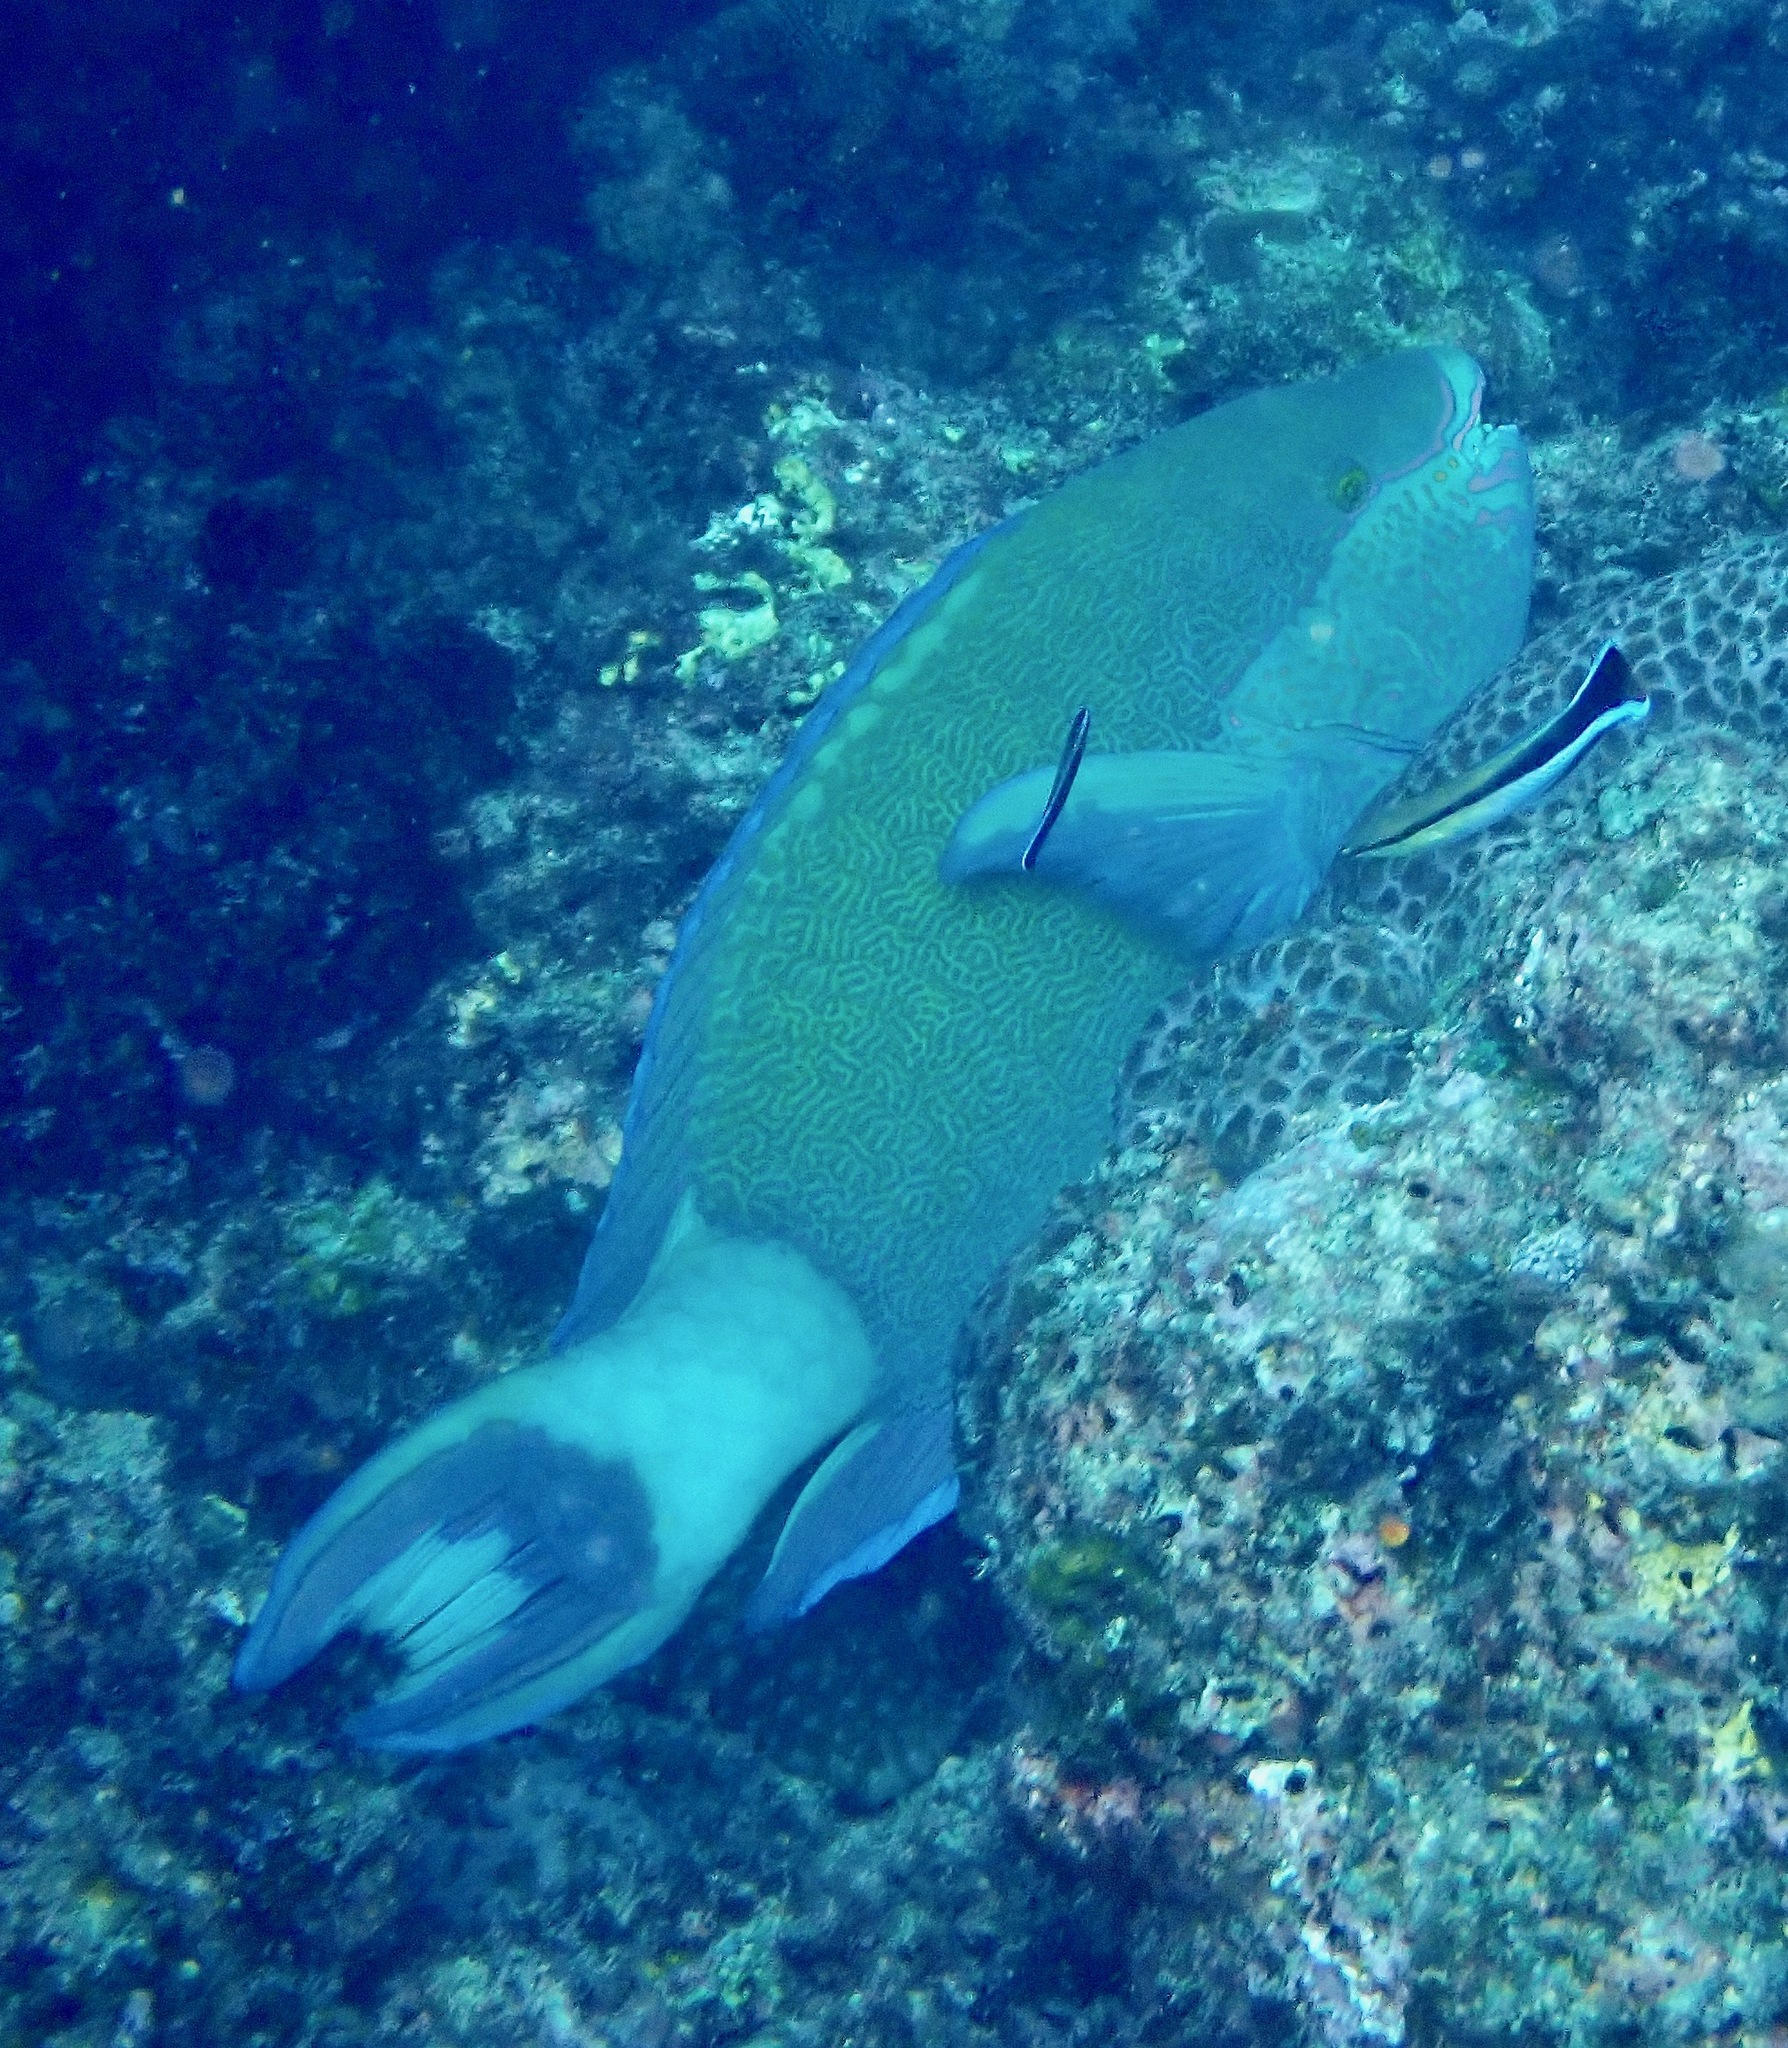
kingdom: Animalia
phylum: Chordata
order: Perciformes
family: Scaridae
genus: Scarus
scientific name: Scarus frenatus
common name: Bridled parrotfish
